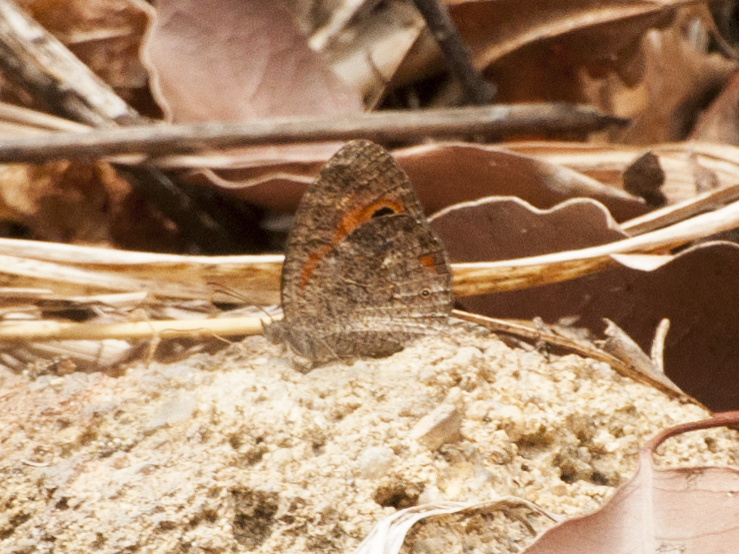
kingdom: Animalia
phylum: Arthropoda
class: Insecta
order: Lepidoptera
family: Nymphalidae
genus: Heteropsis
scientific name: Heteropsis ankaratra
